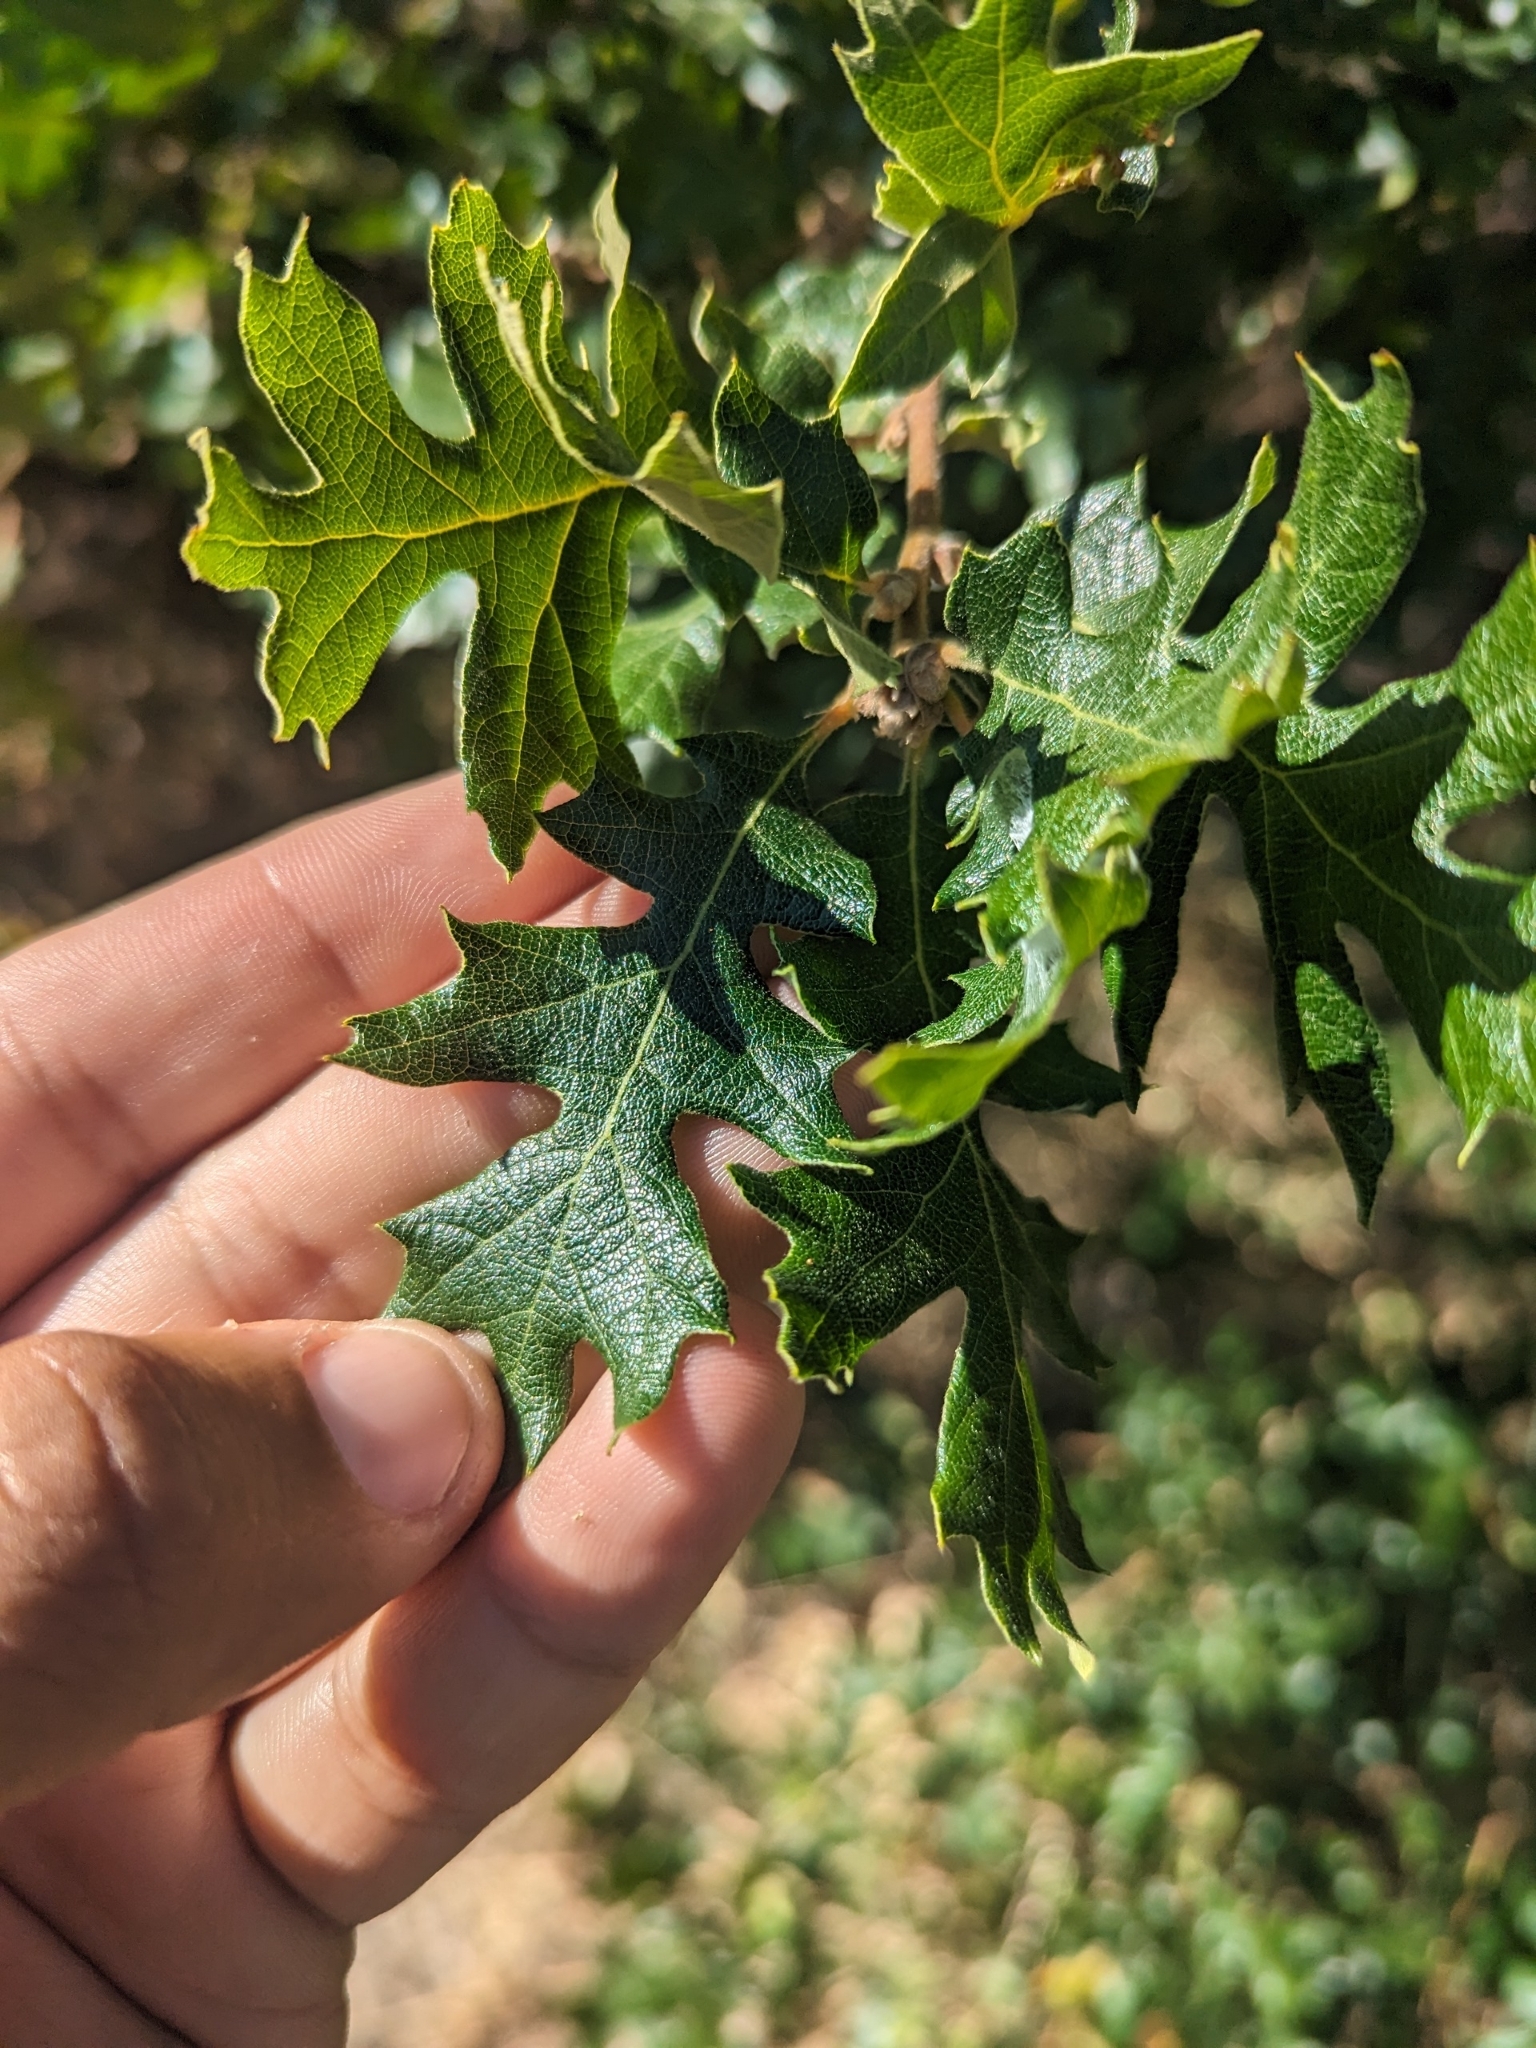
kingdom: Plantae
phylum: Tracheophyta
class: Magnoliopsida
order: Fagales
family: Fagaceae
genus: Quercus
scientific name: Quercus garryana
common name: Garry oak
